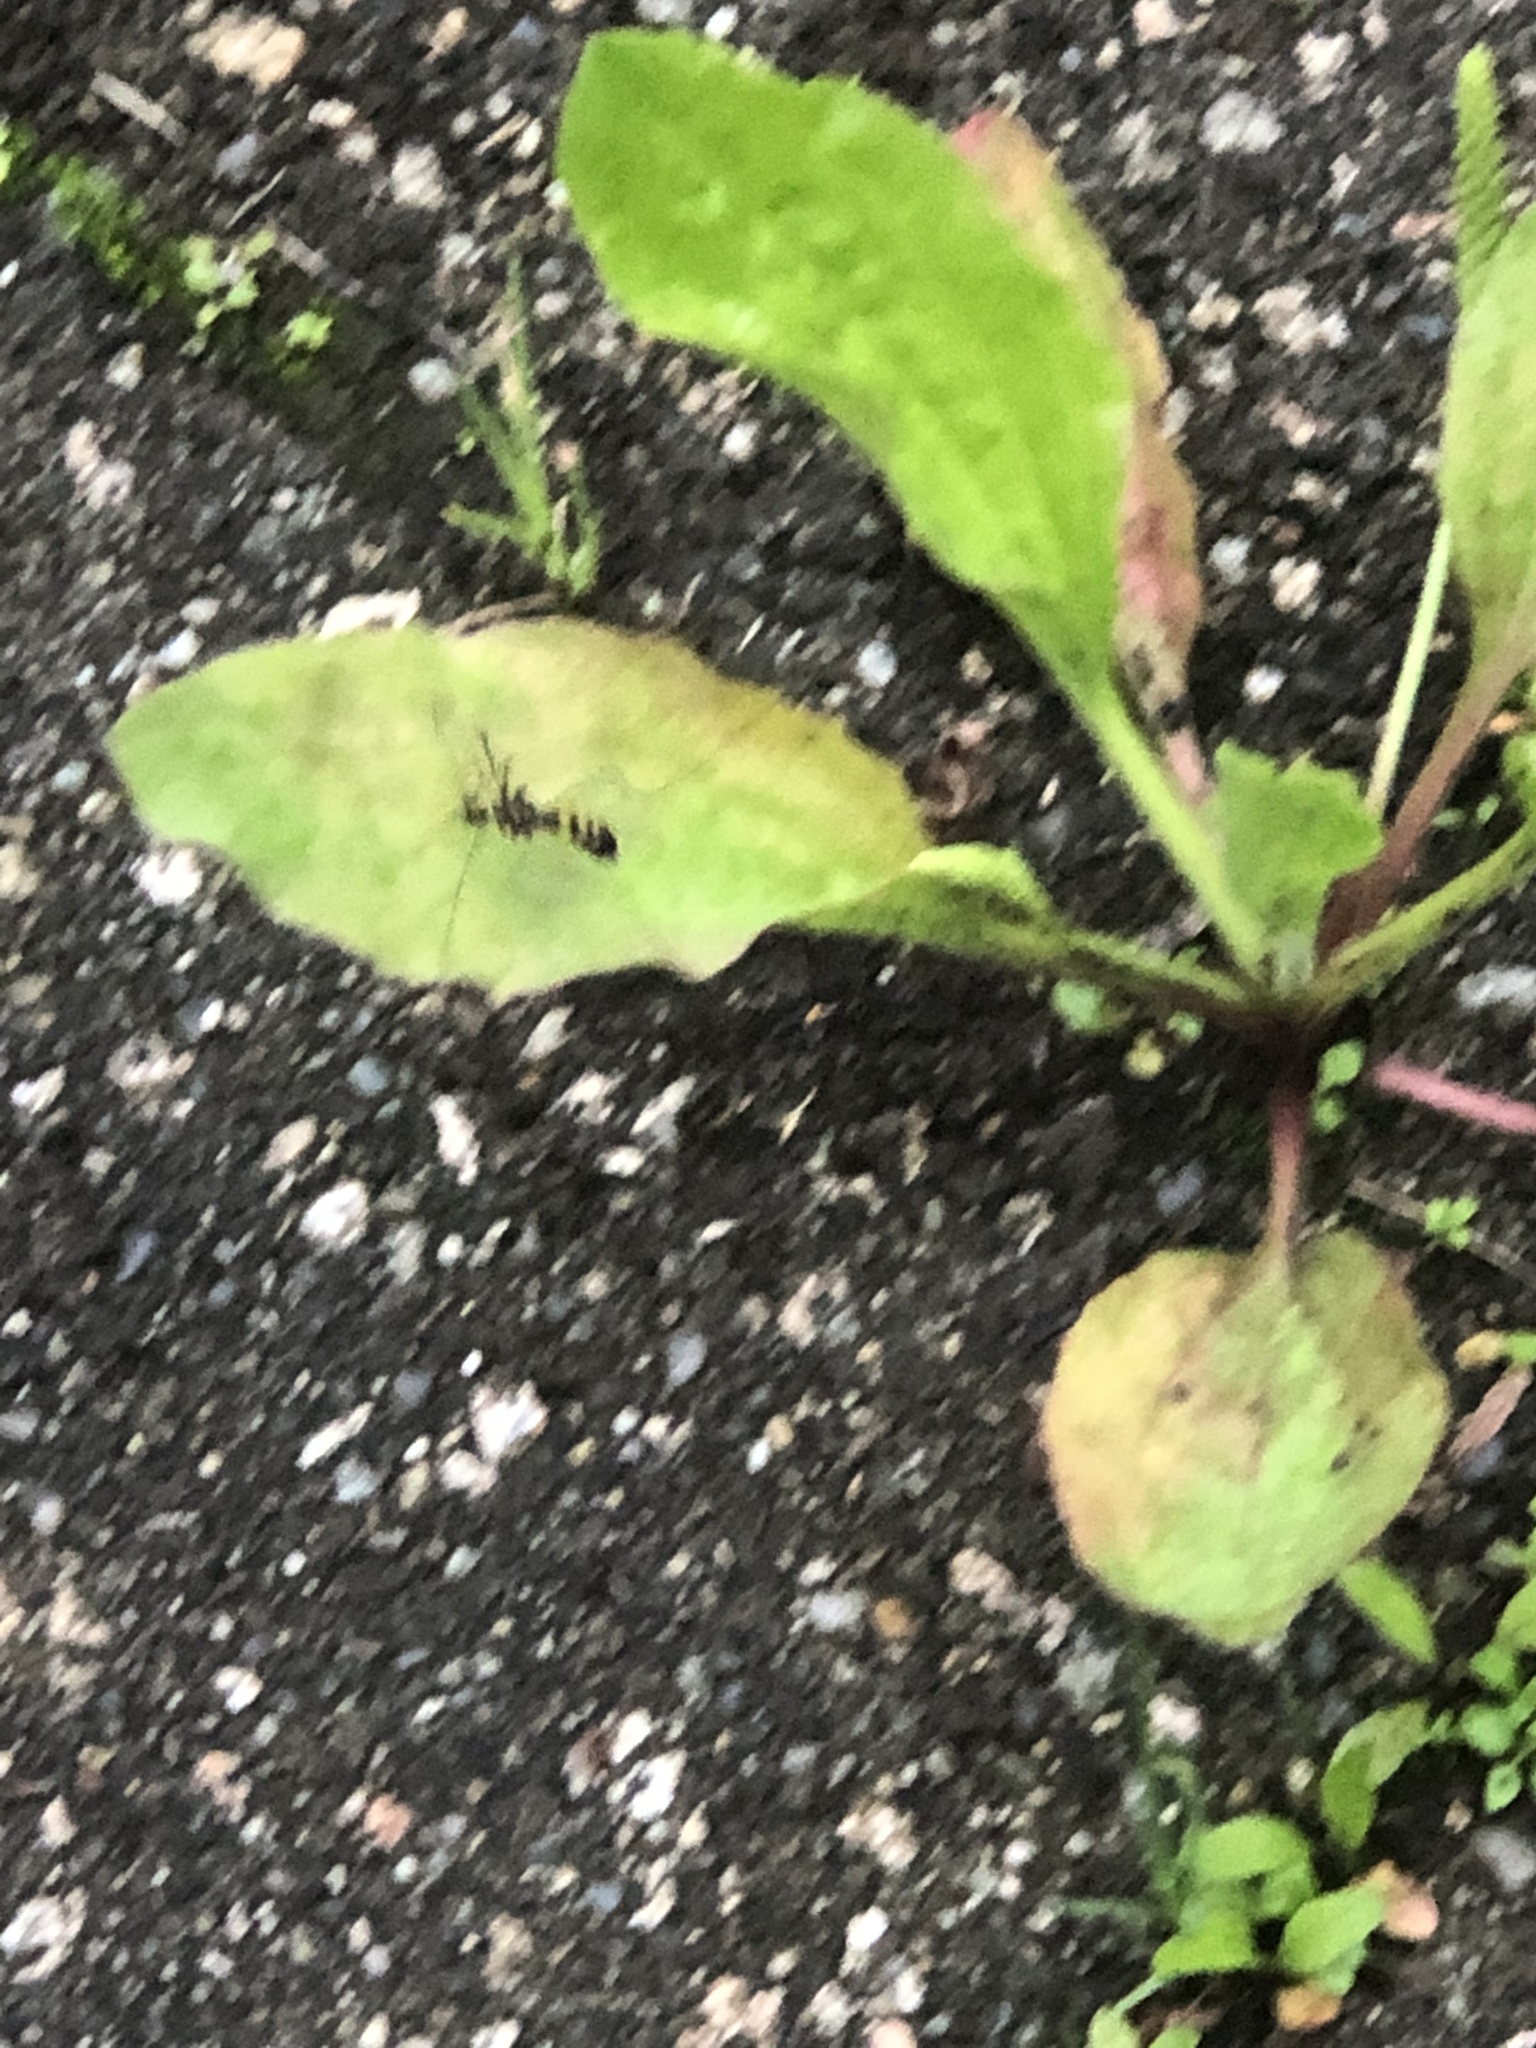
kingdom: Animalia
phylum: Arthropoda
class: Insecta
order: Diptera
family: Tipulidae
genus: Nephrotoma
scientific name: Nephrotoma crocata
